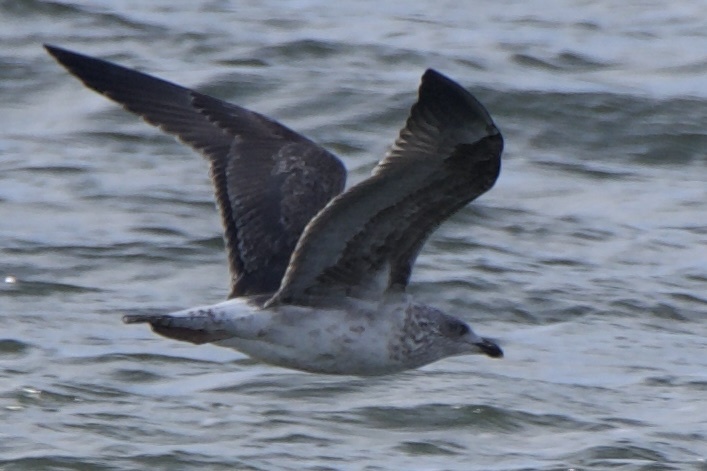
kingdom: Animalia
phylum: Chordata
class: Aves
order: Charadriiformes
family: Laridae
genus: Larus
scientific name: Larus fuscus
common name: Lesser black-backed gull
